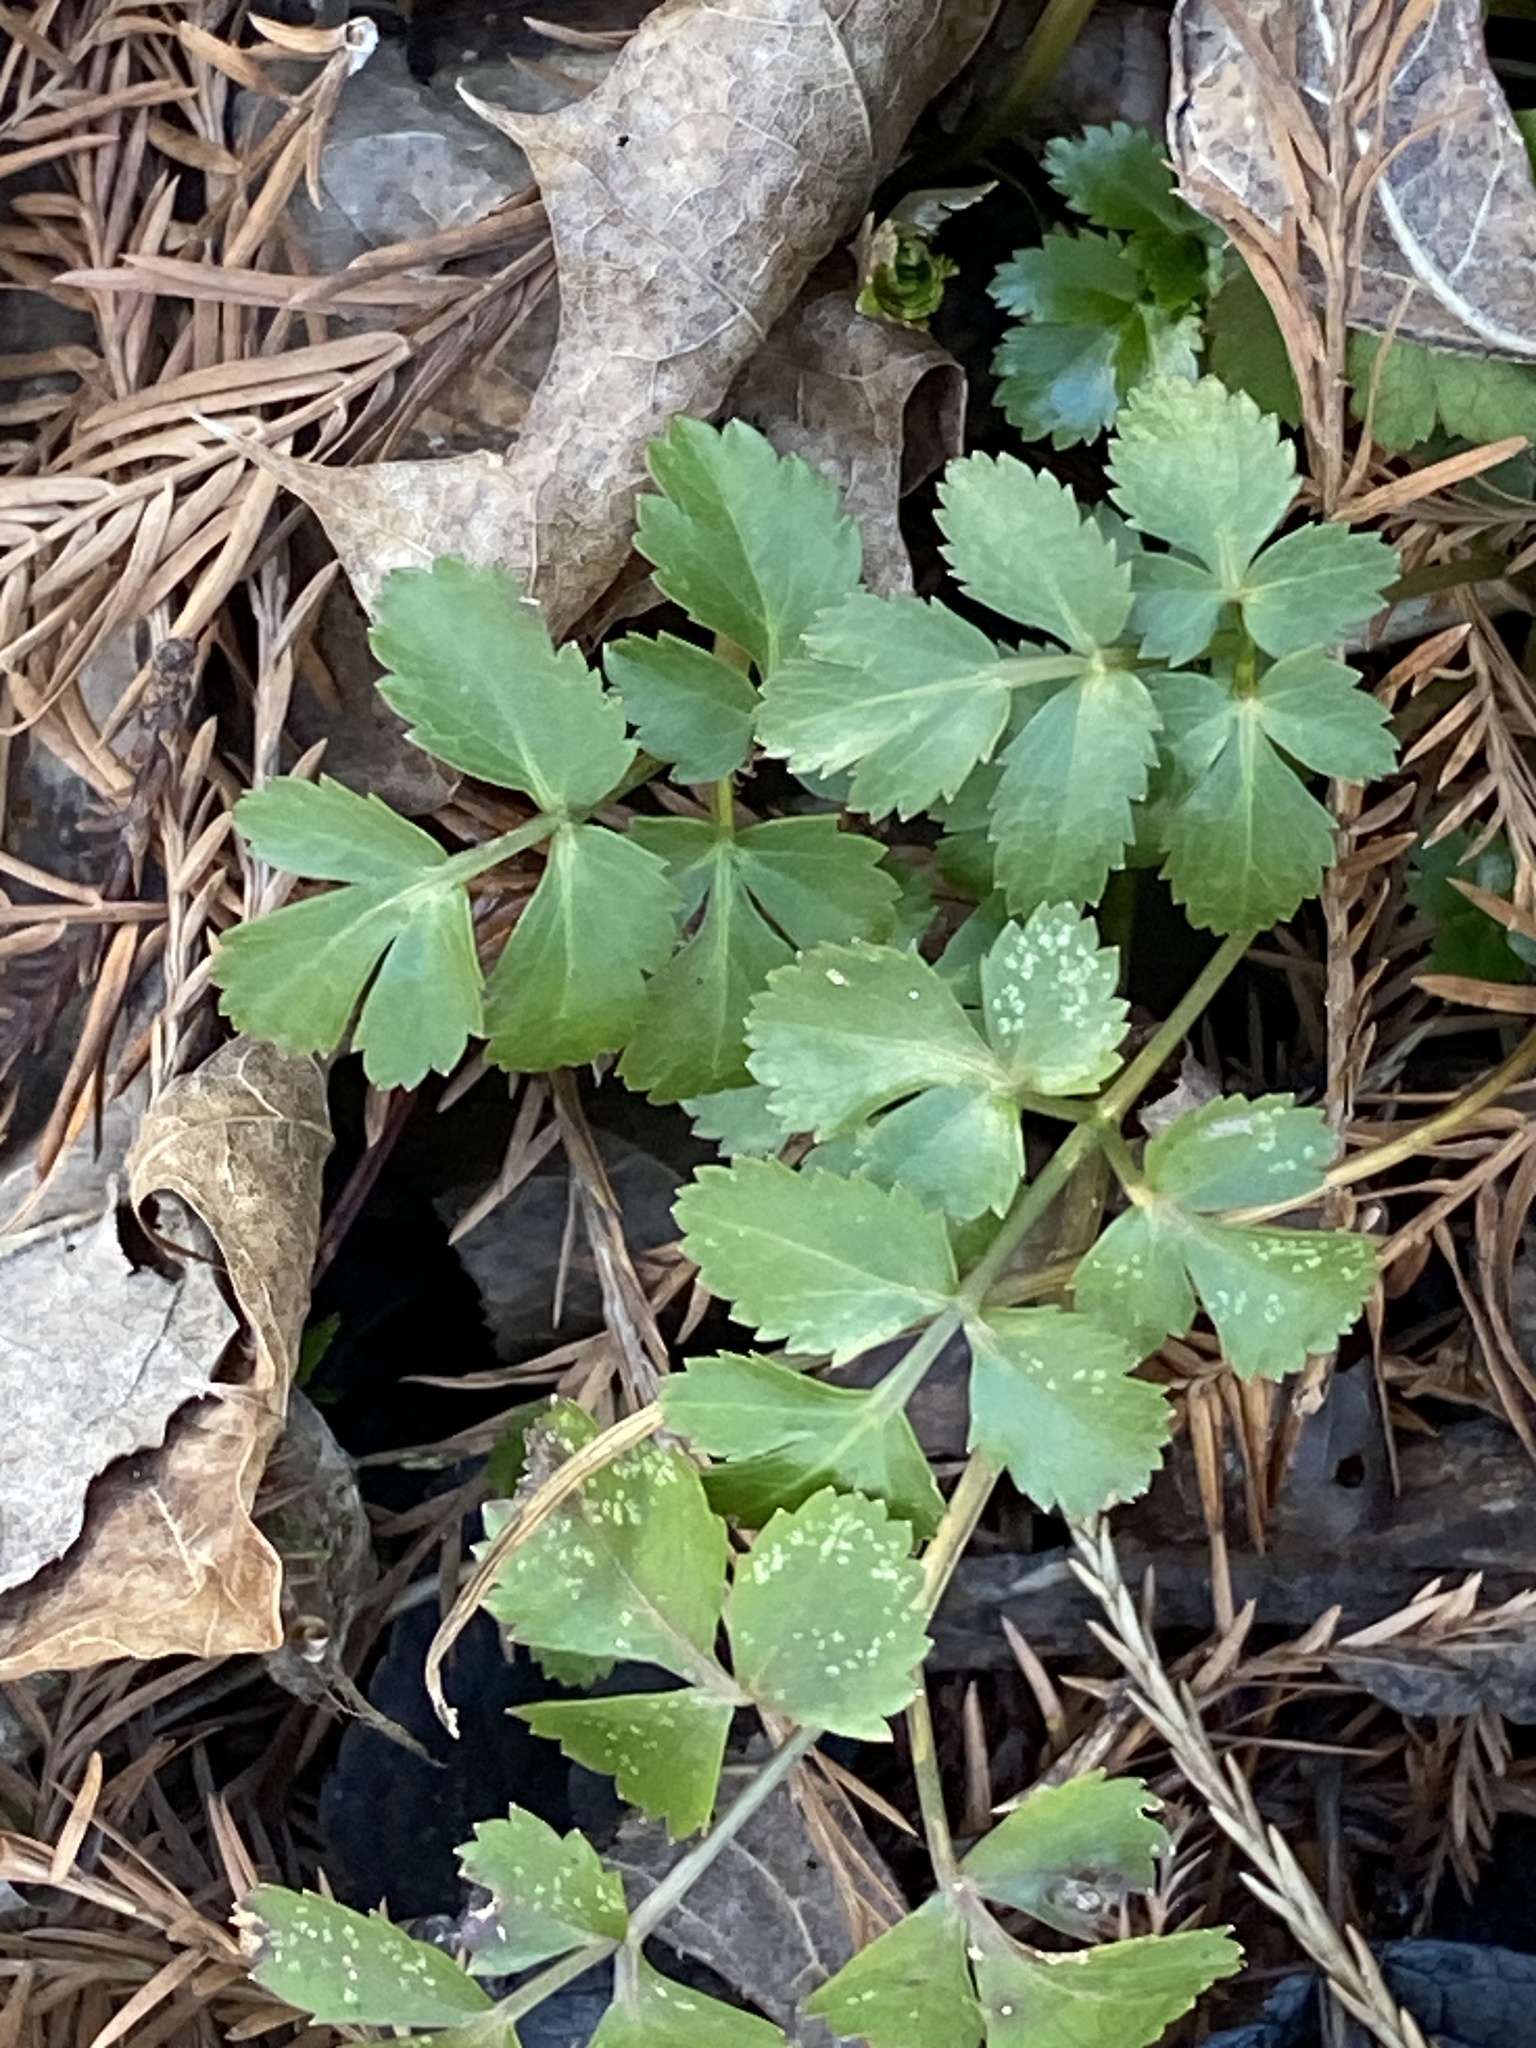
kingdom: Plantae
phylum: Tracheophyta
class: Magnoliopsida
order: Apiales
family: Apiaceae
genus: Zizia
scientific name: Zizia aurea
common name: Golden alexanders
